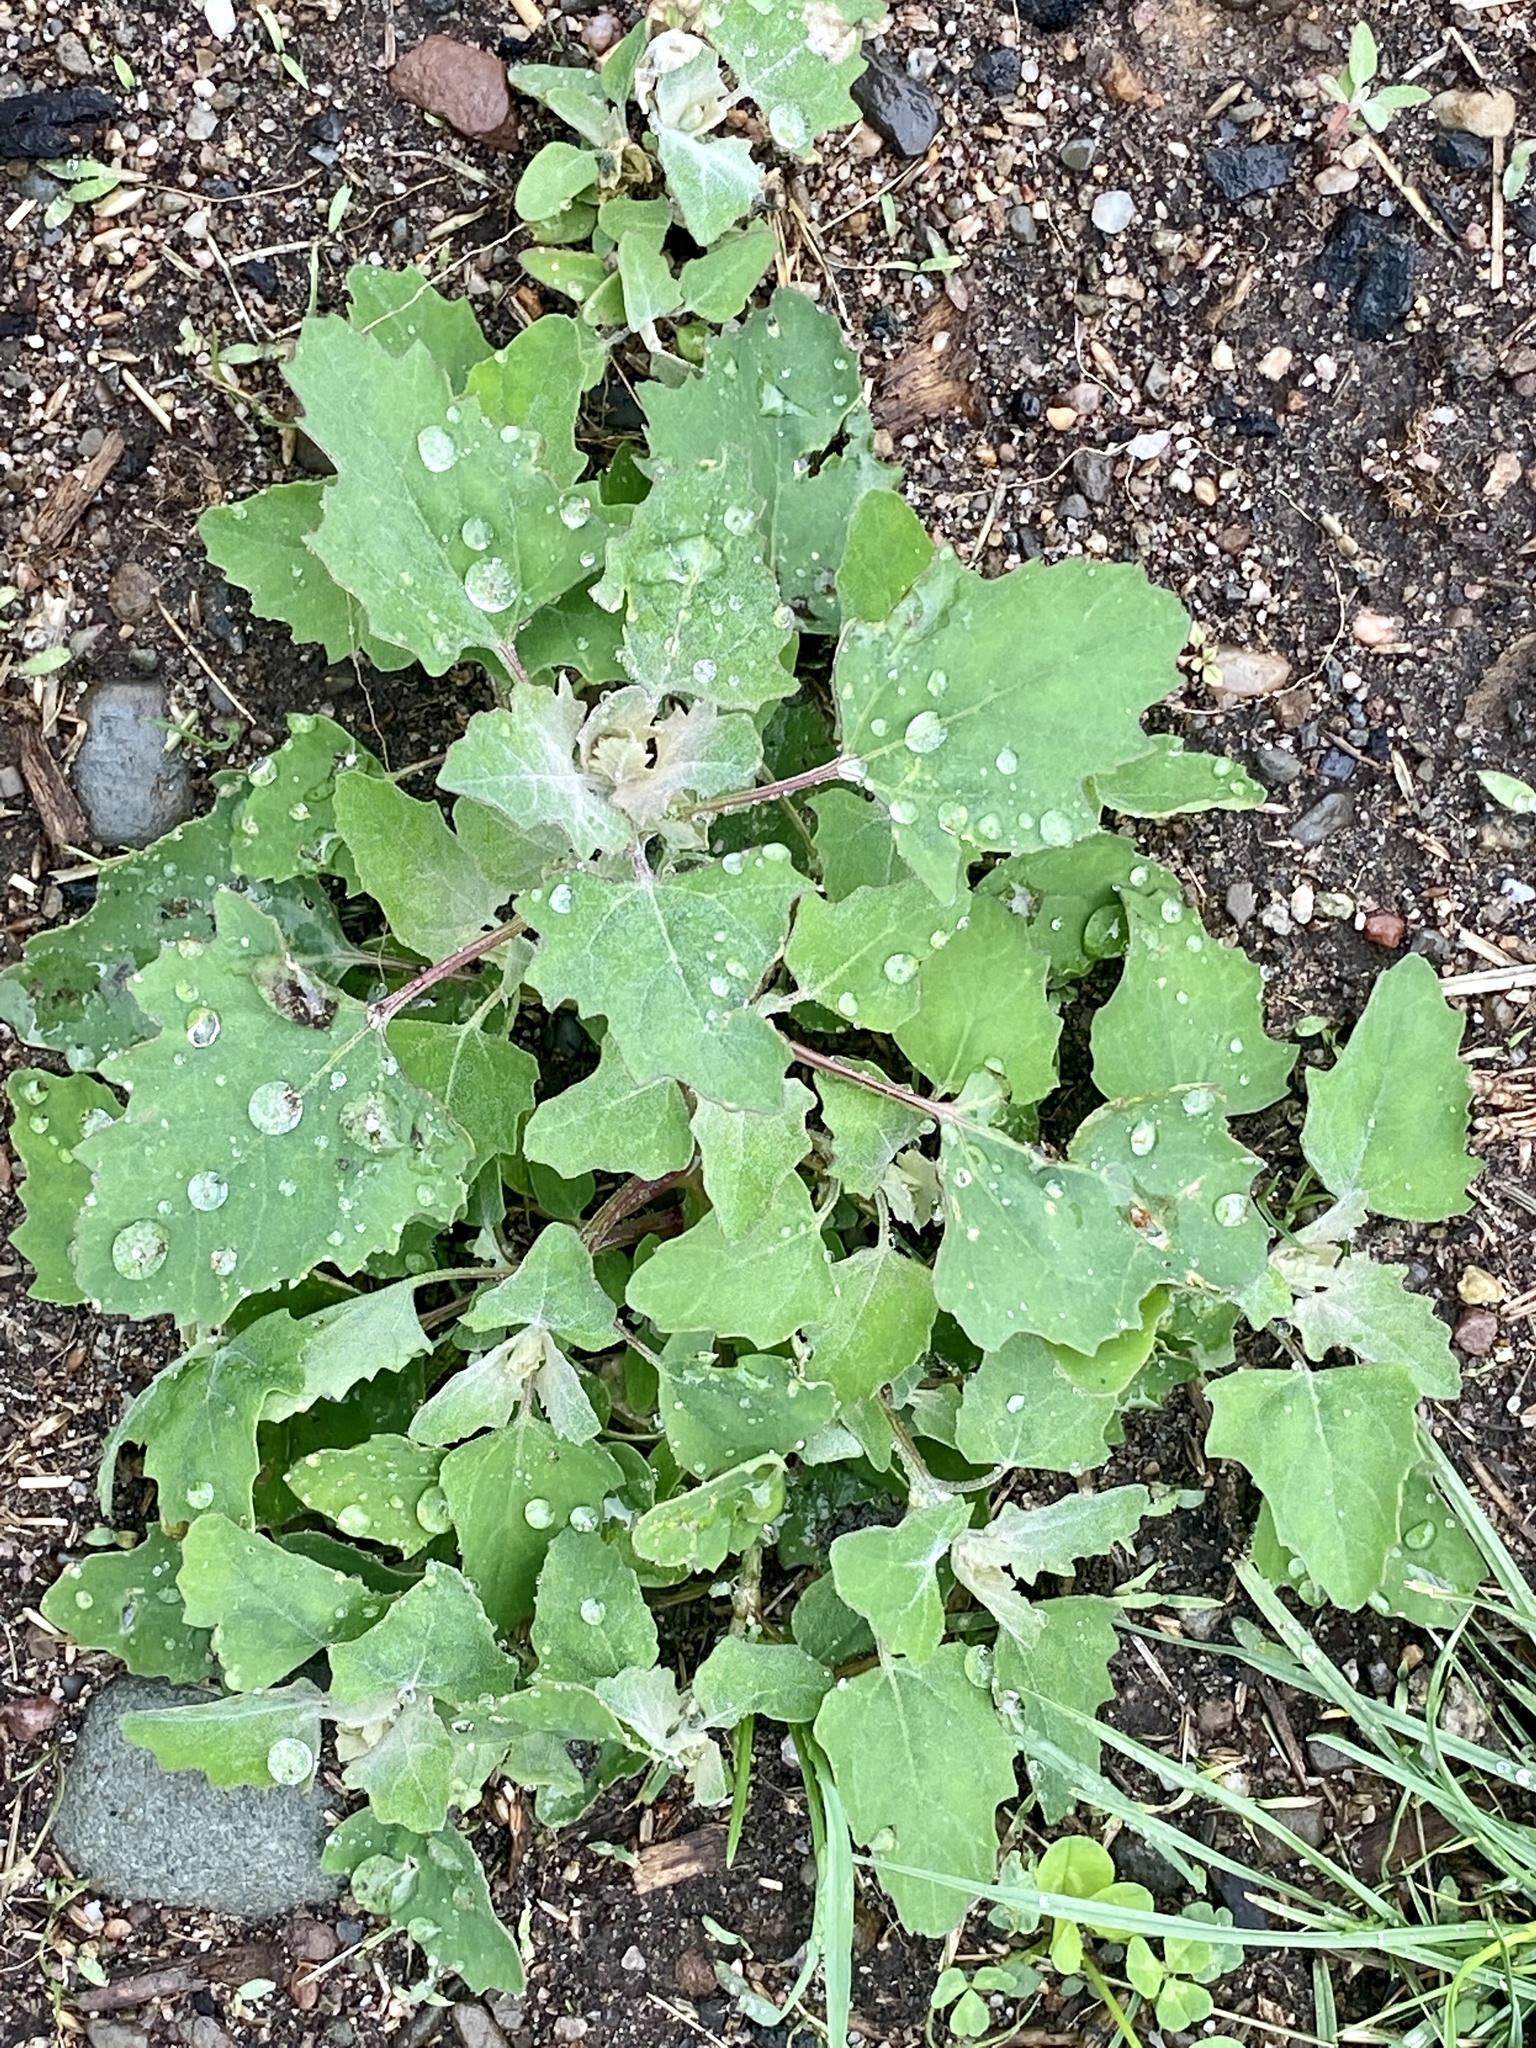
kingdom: Plantae
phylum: Tracheophyta
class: Magnoliopsida
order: Caryophyllales
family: Amaranthaceae
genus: Chenopodium
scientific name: Chenopodium album
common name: Fat-hen
